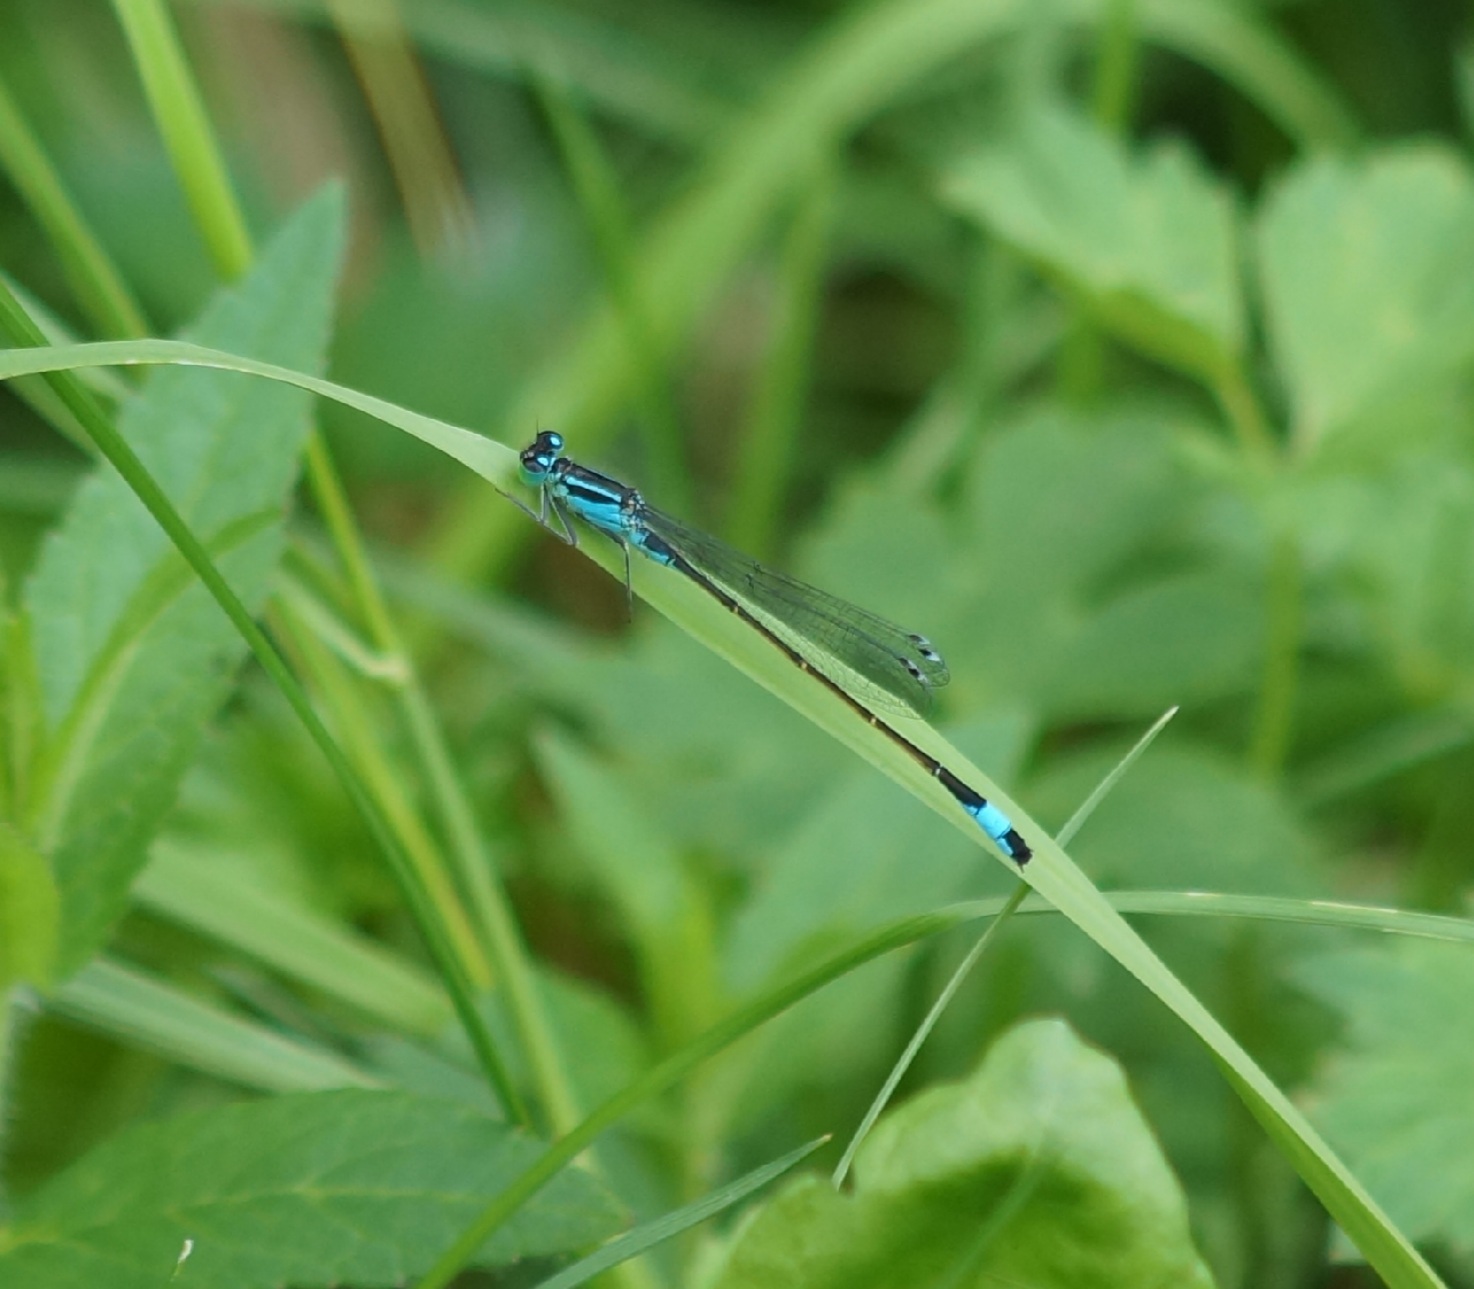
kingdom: Animalia
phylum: Arthropoda
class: Insecta
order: Odonata
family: Coenagrionidae
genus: Ischnura
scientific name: Ischnura elegans
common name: Blue-tailed damselfly
